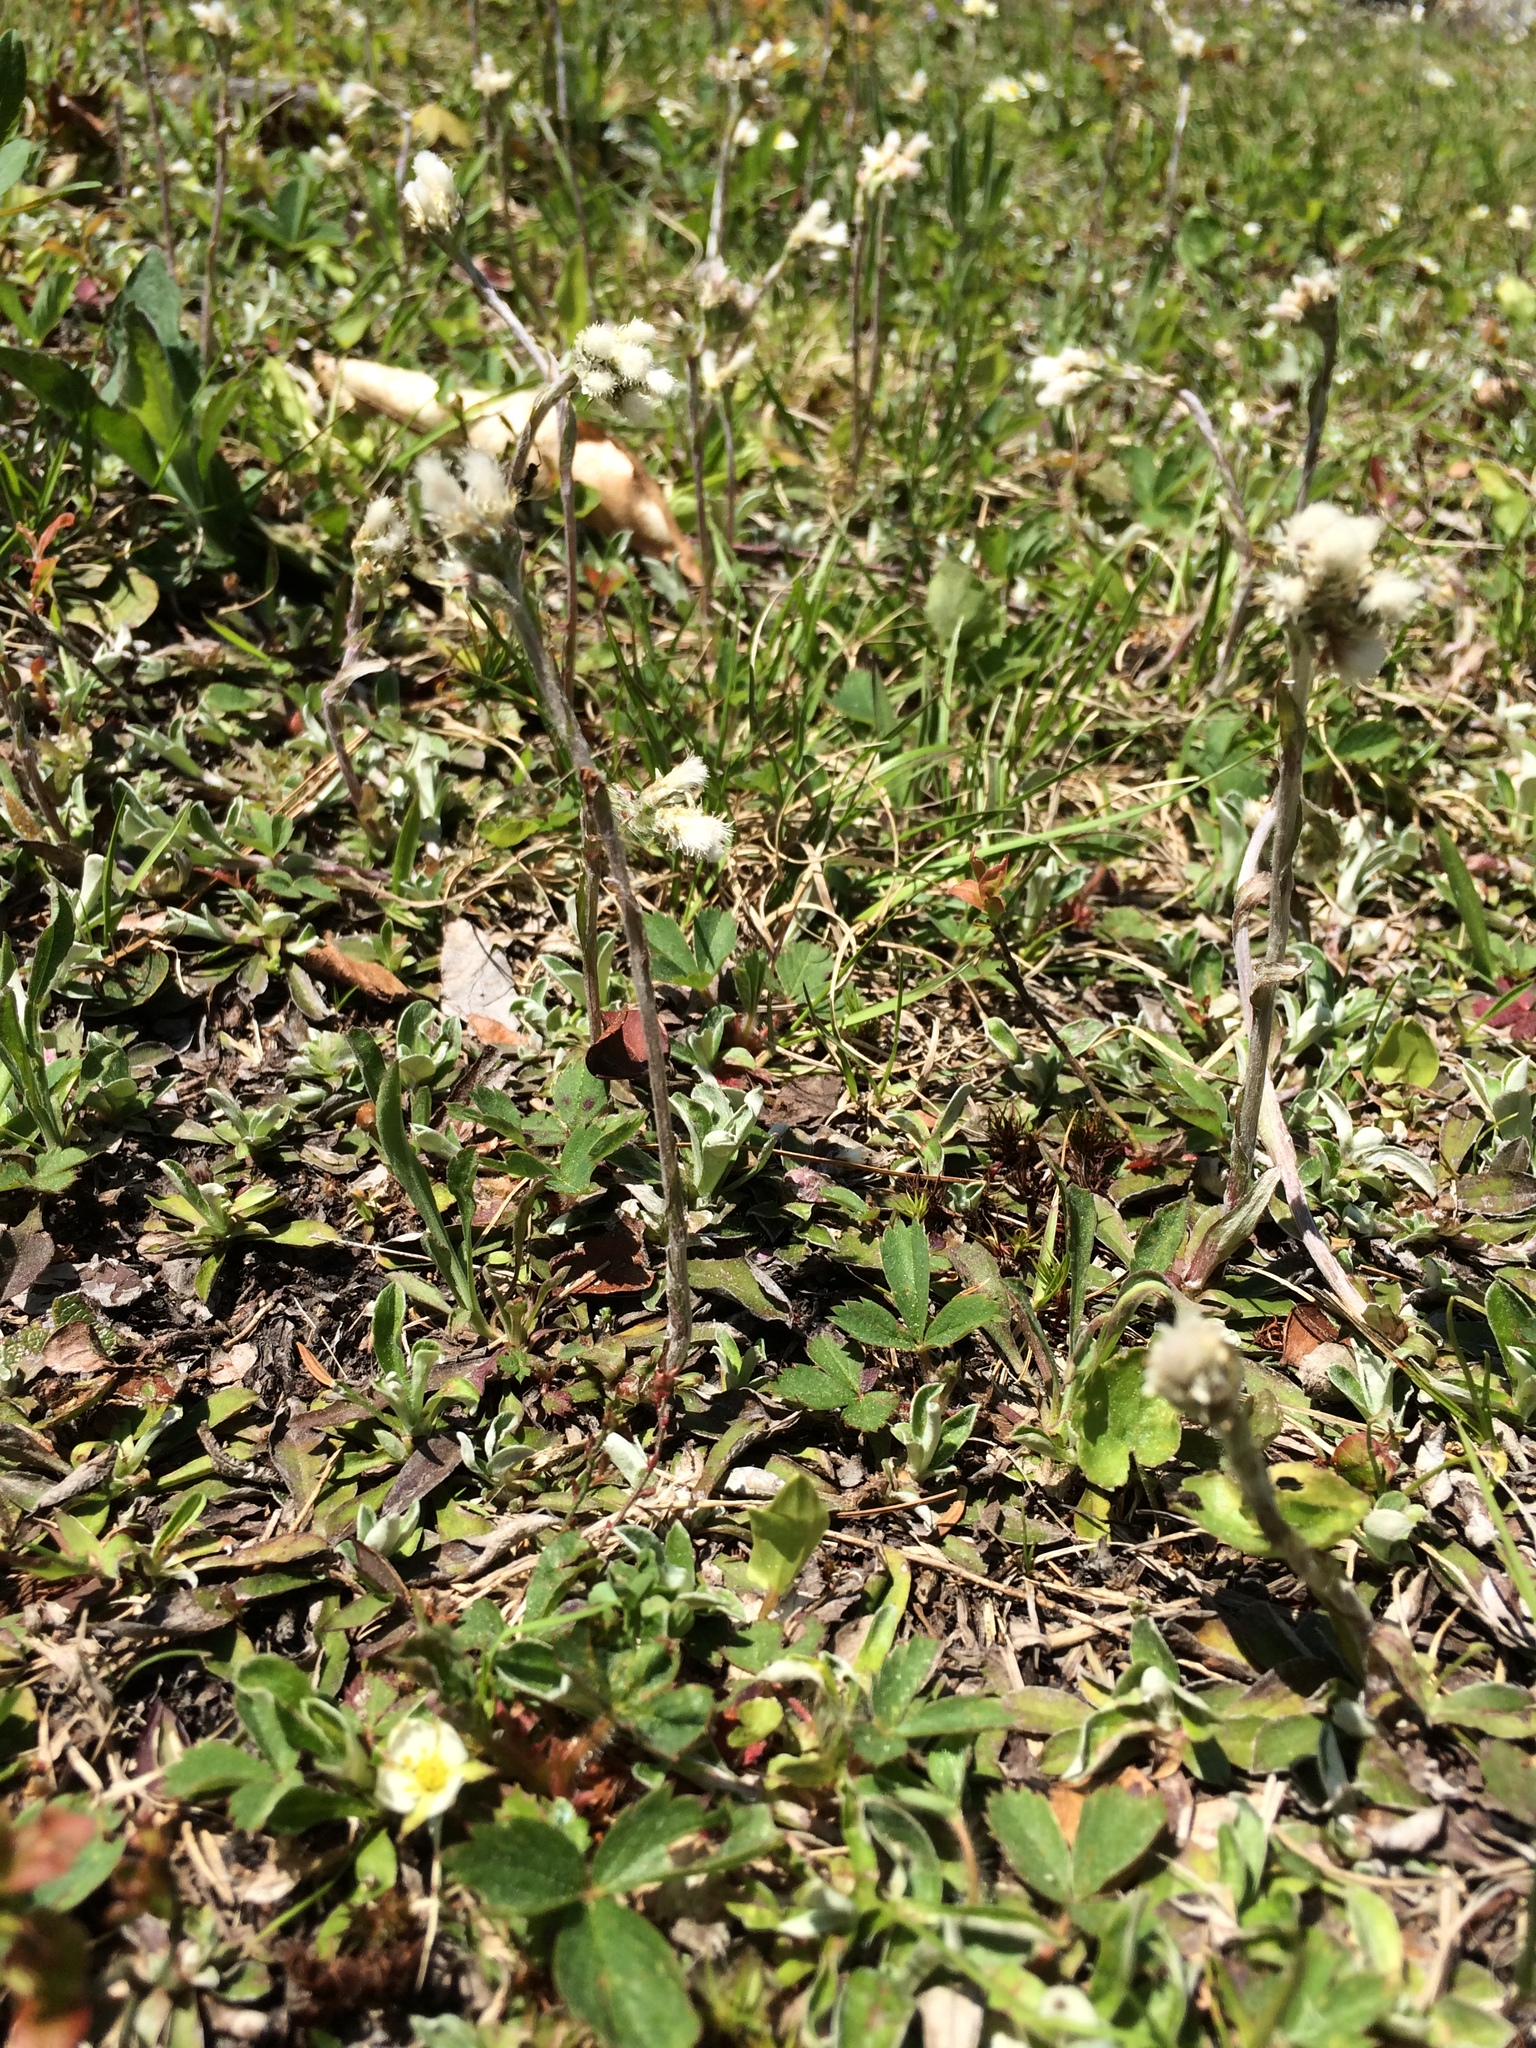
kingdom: Plantae
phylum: Tracheophyta
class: Magnoliopsida
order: Asterales
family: Asteraceae
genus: Antennaria
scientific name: Antennaria howellii
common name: Howell's pussytoes
